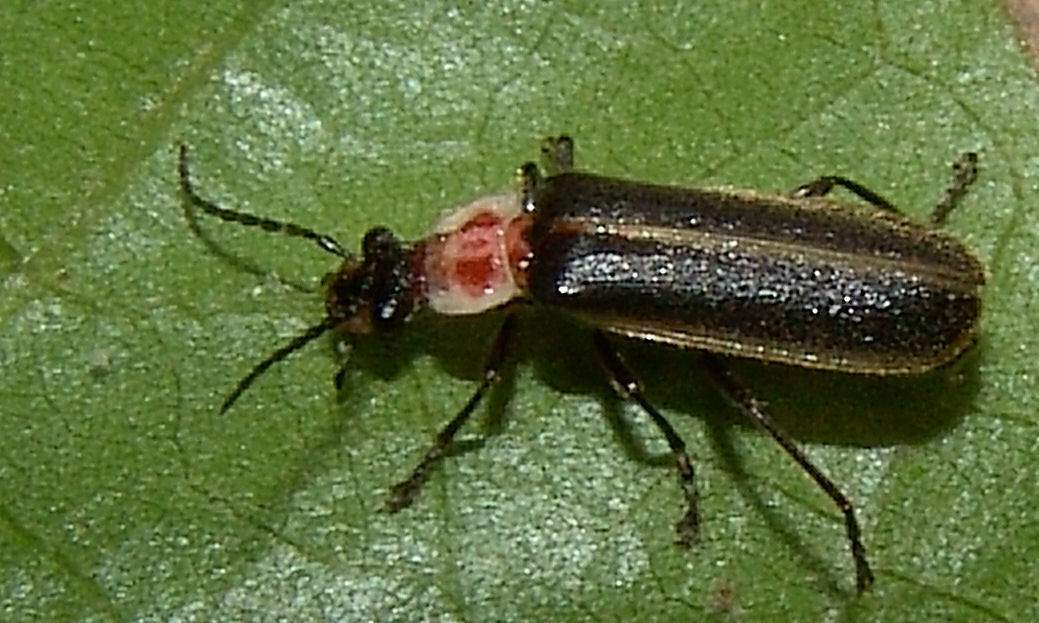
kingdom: Animalia
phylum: Arthropoda
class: Insecta
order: Coleoptera
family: Cantharidae
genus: Podabrus
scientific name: Podabrus knobeli
